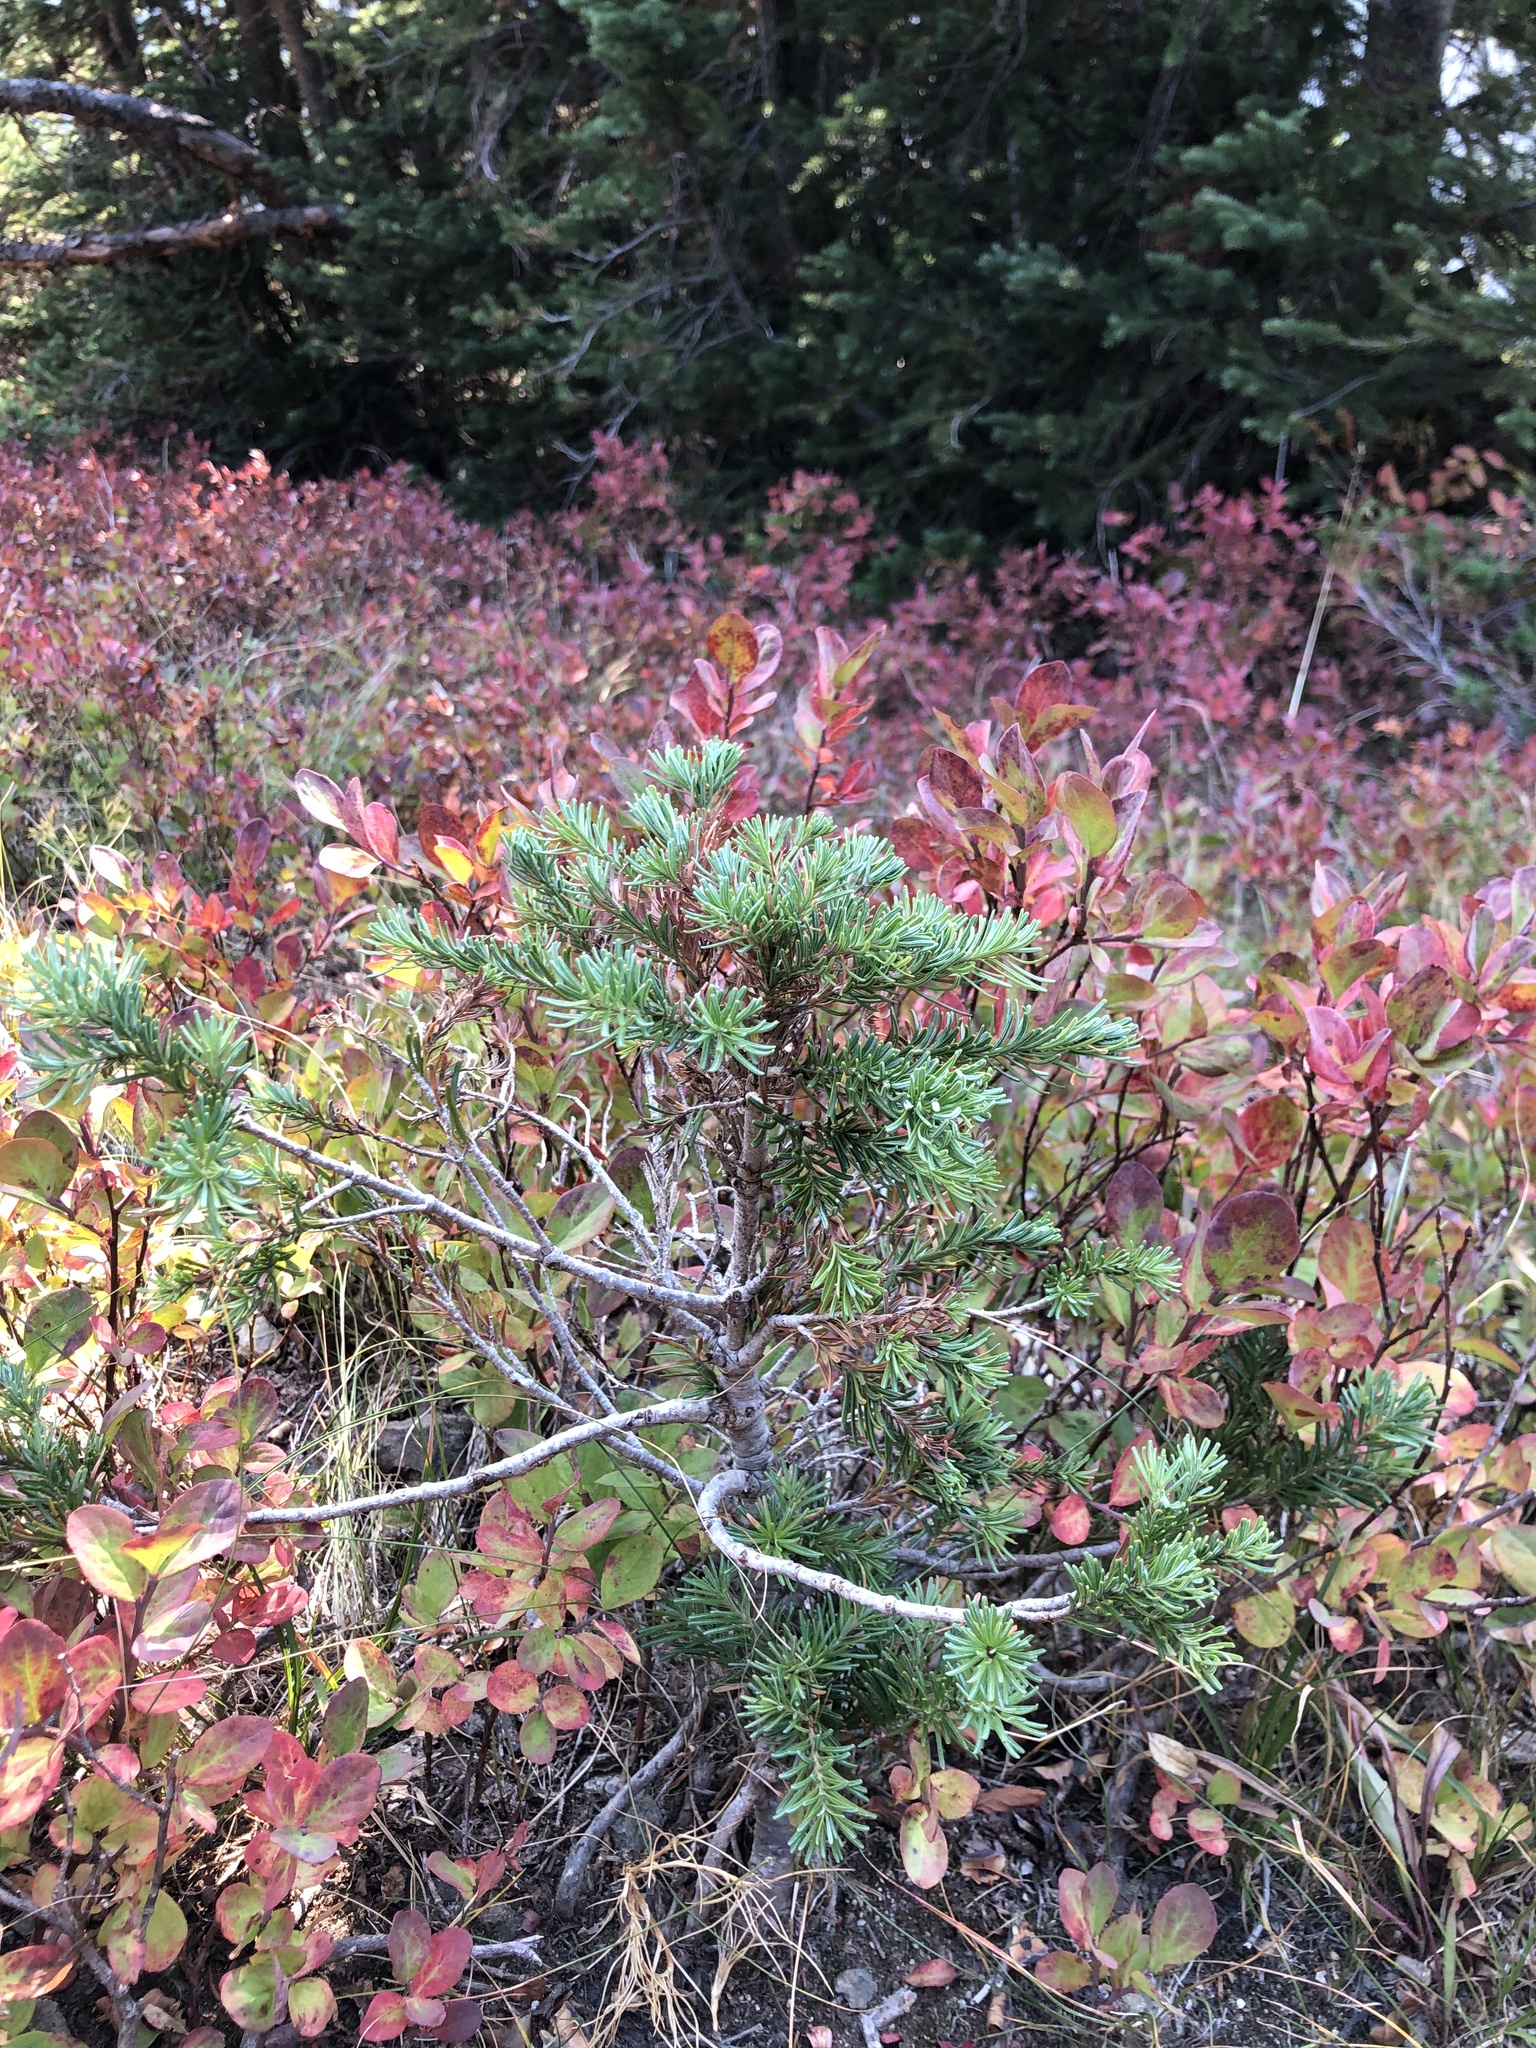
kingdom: Plantae
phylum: Tracheophyta
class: Pinopsida
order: Pinales
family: Pinaceae
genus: Abies
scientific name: Abies lasiocarpa
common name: Subalpine fir
